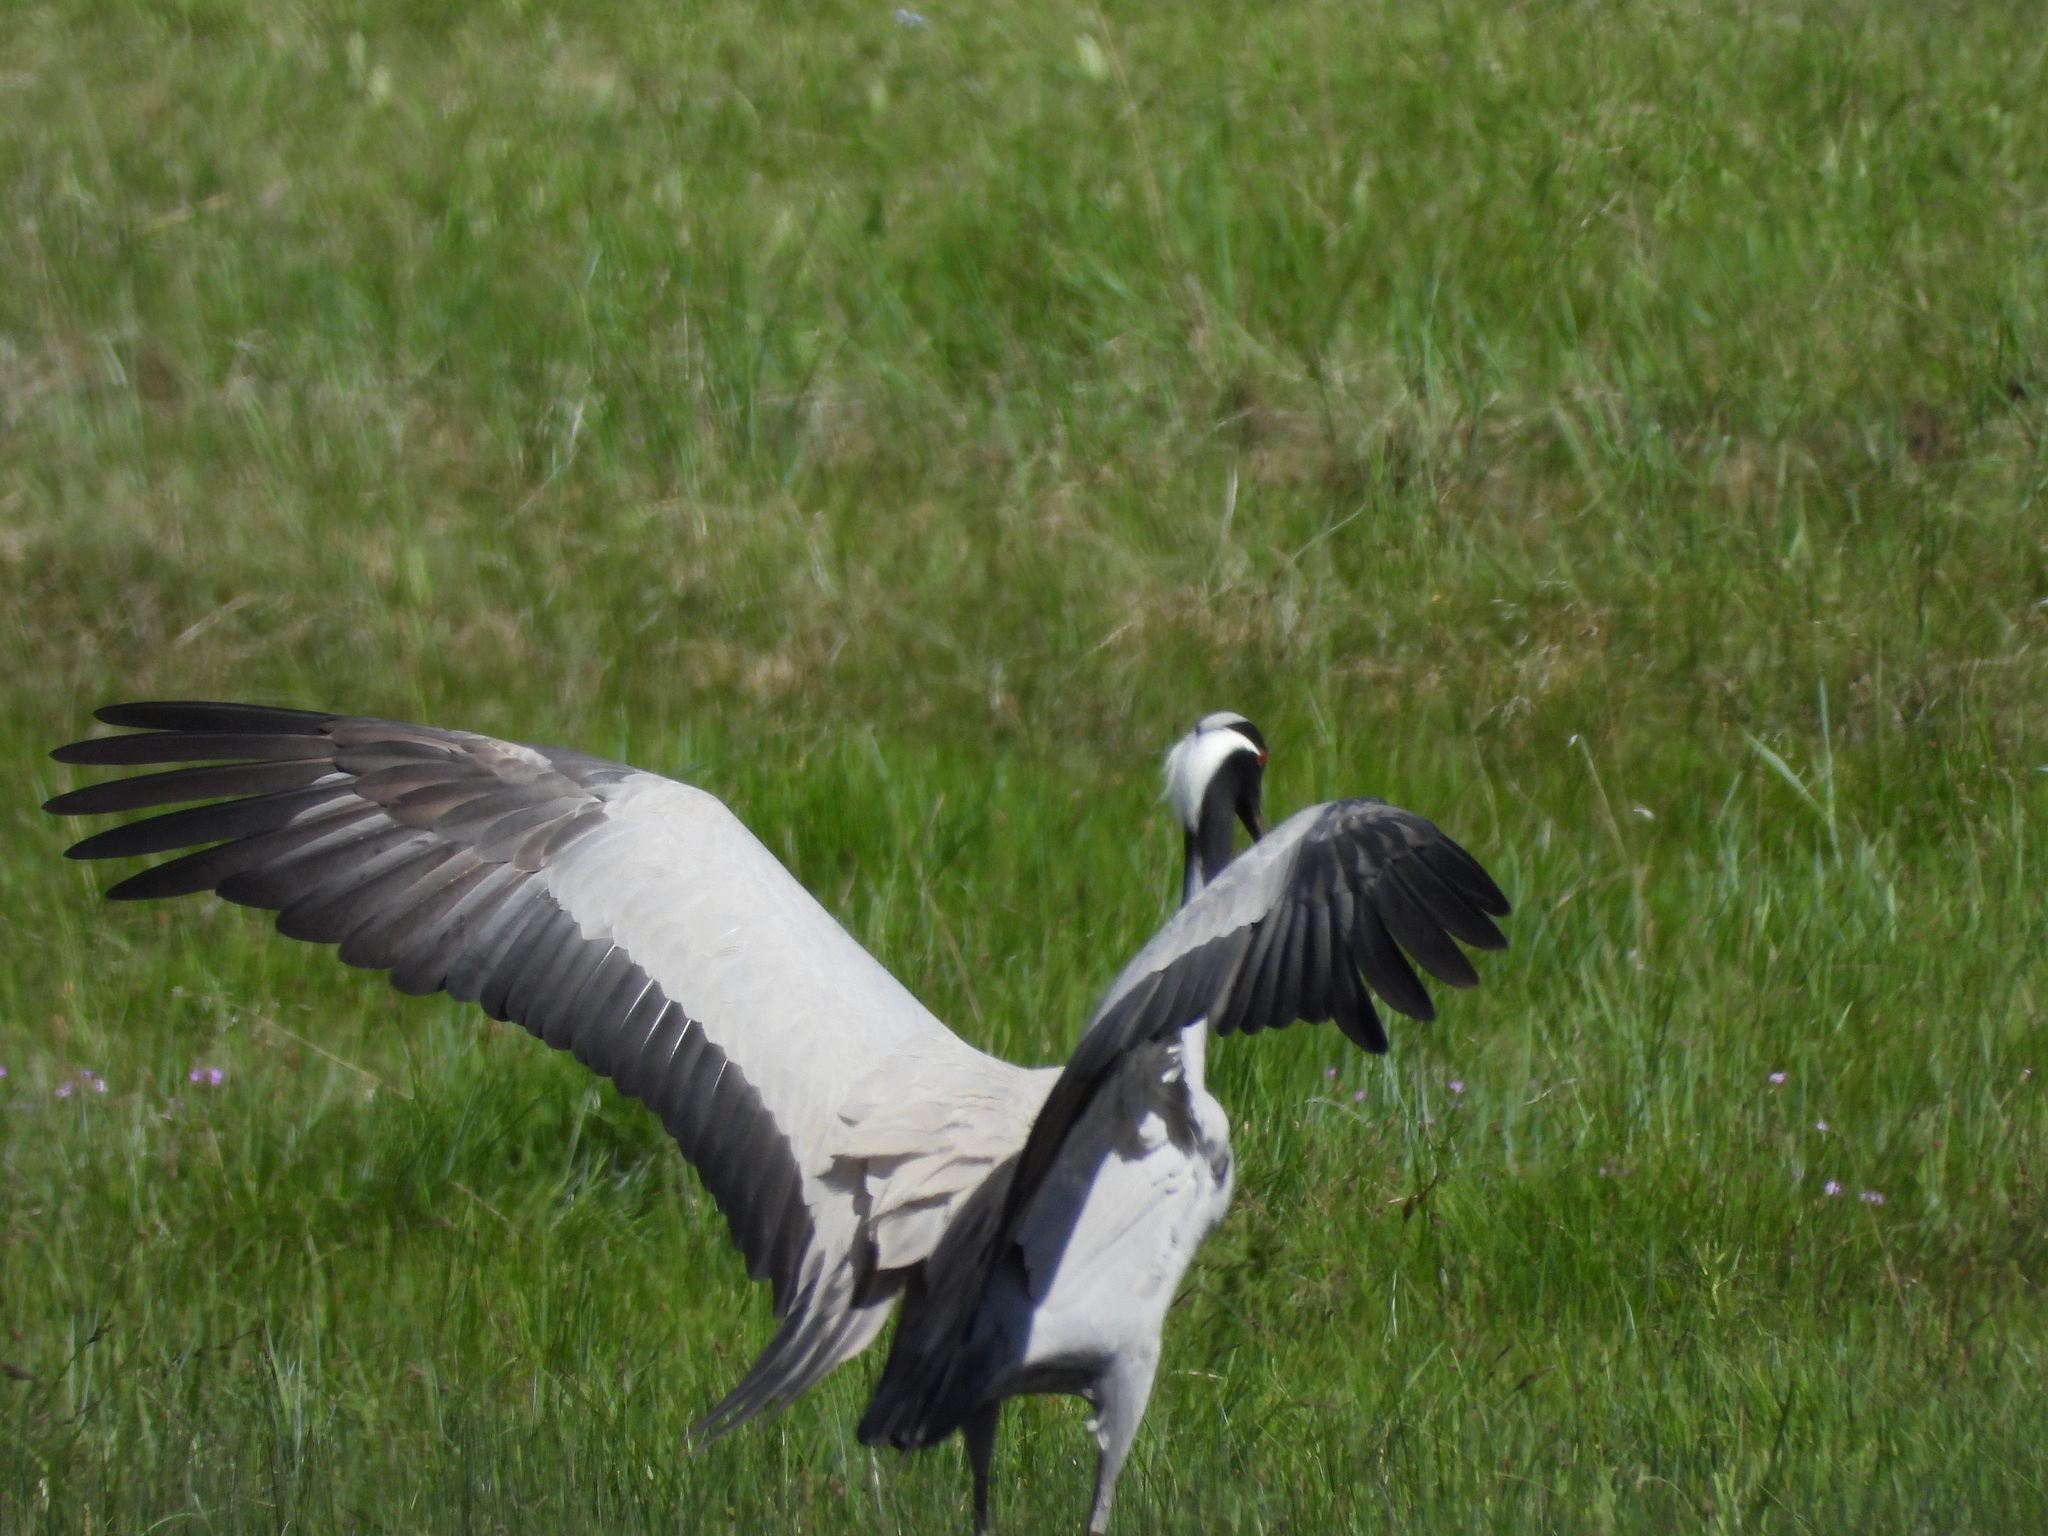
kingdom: Animalia
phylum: Chordata
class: Aves
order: Gruiformes
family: Gruidae
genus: Anthropoides
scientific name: Anthropoides virgo
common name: Demoiselle crane
